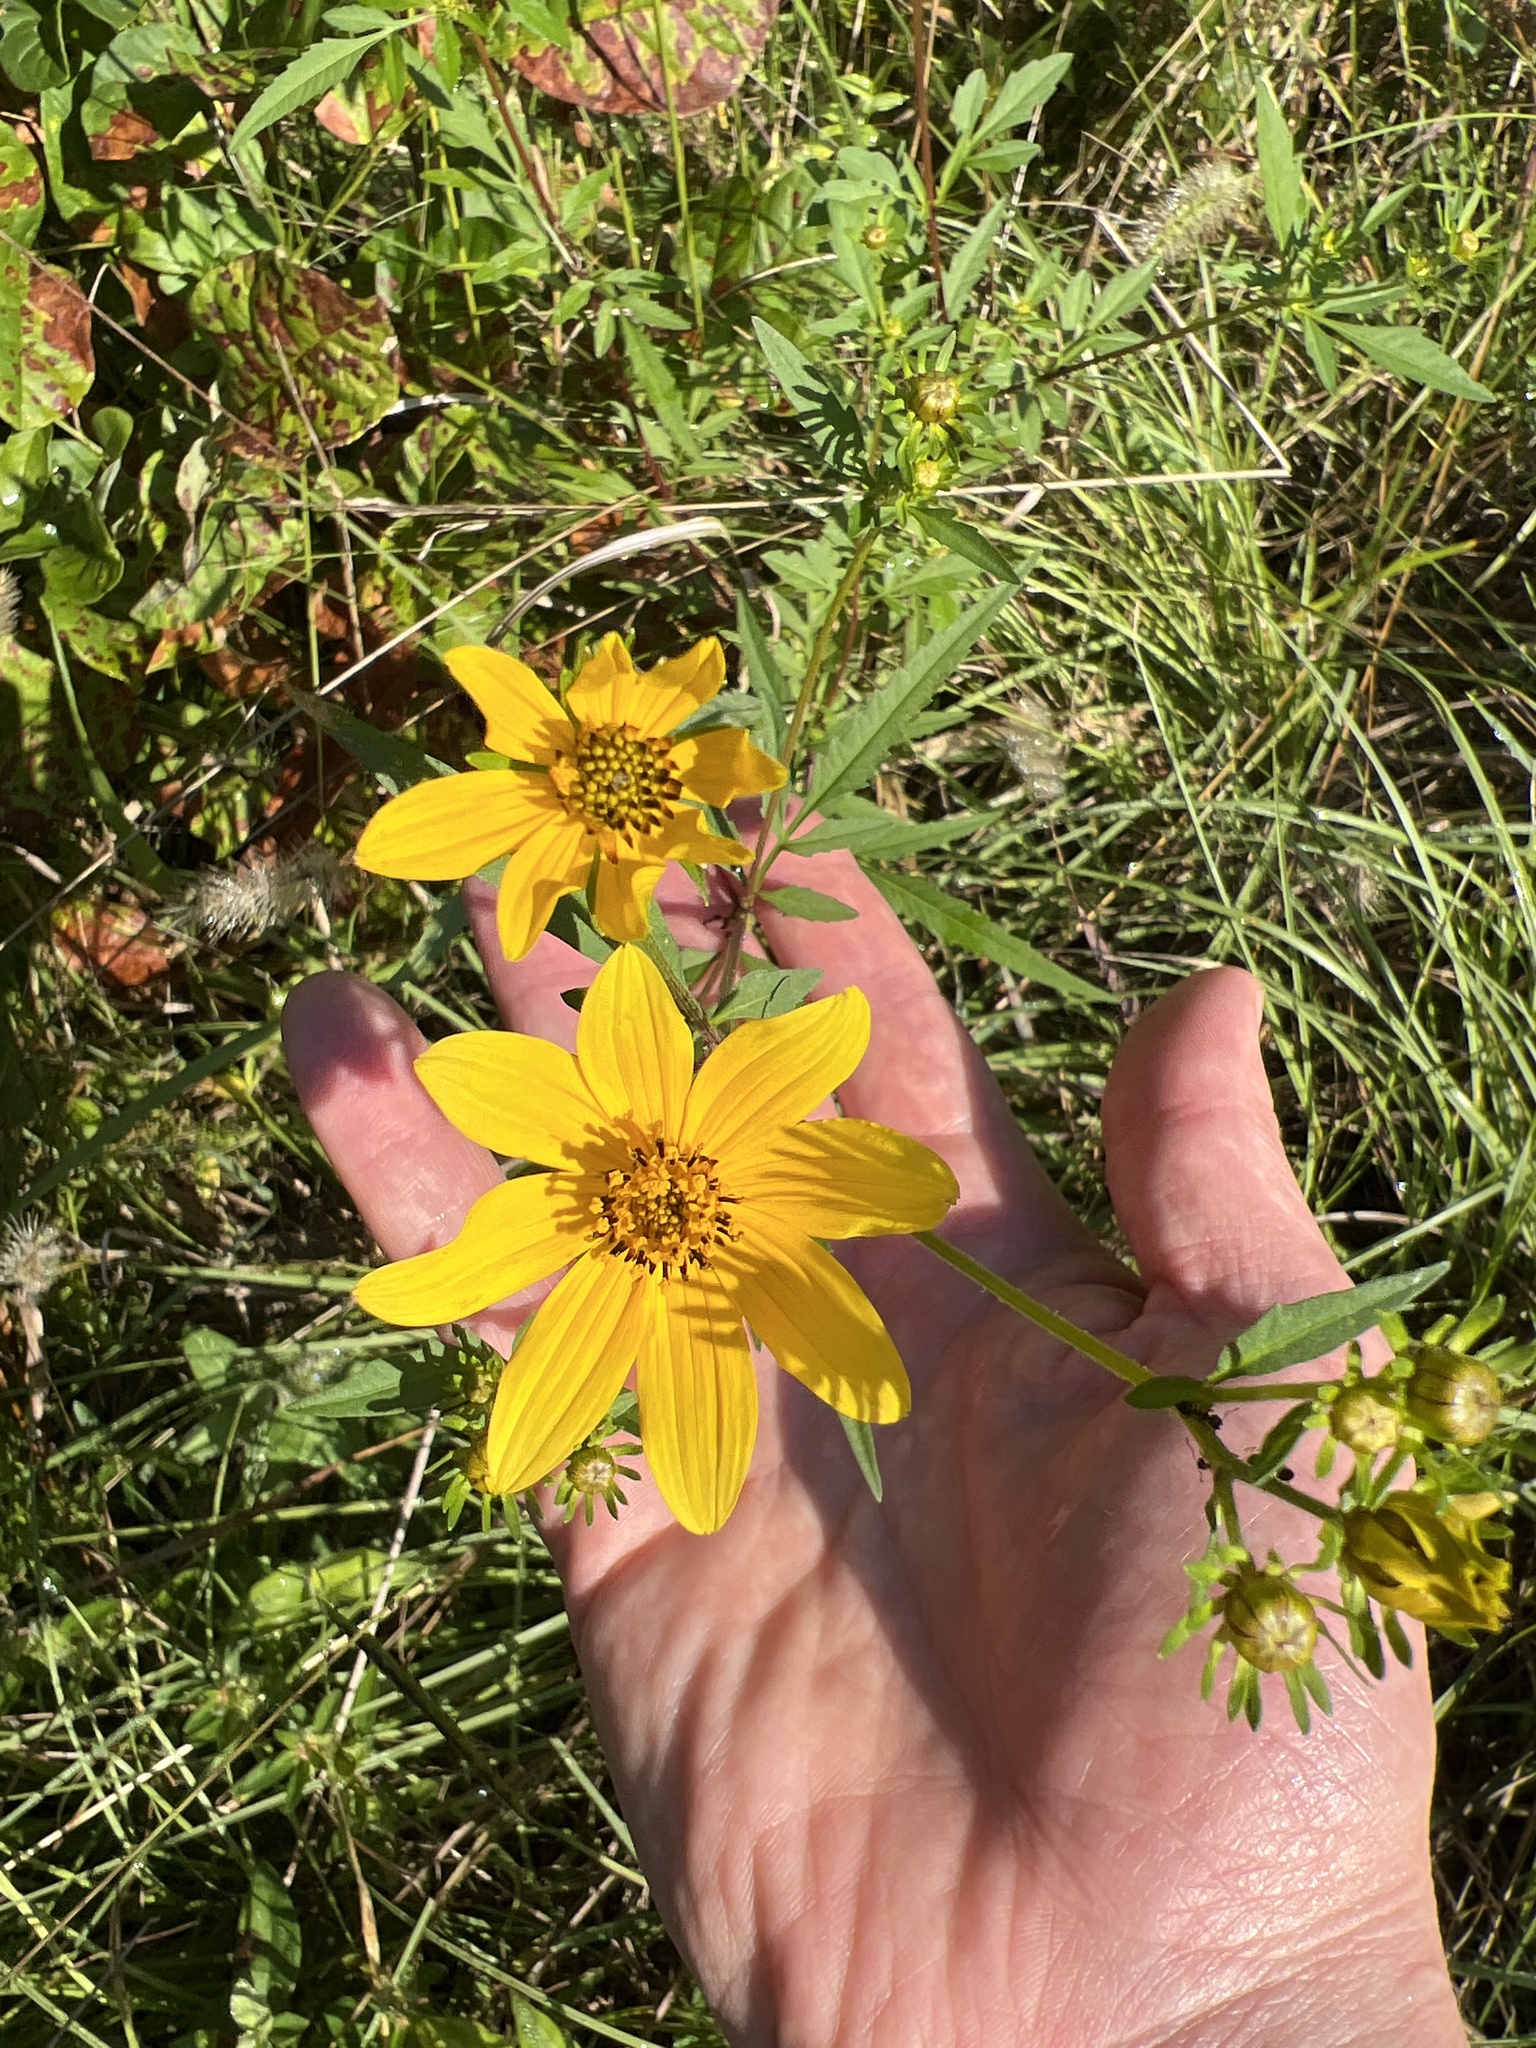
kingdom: Plantae
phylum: Tracheophyta
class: Magnoliopsida
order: Asterales
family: Asteraceae
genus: Bidens
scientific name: Bidens aristosa
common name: Western tickseed
